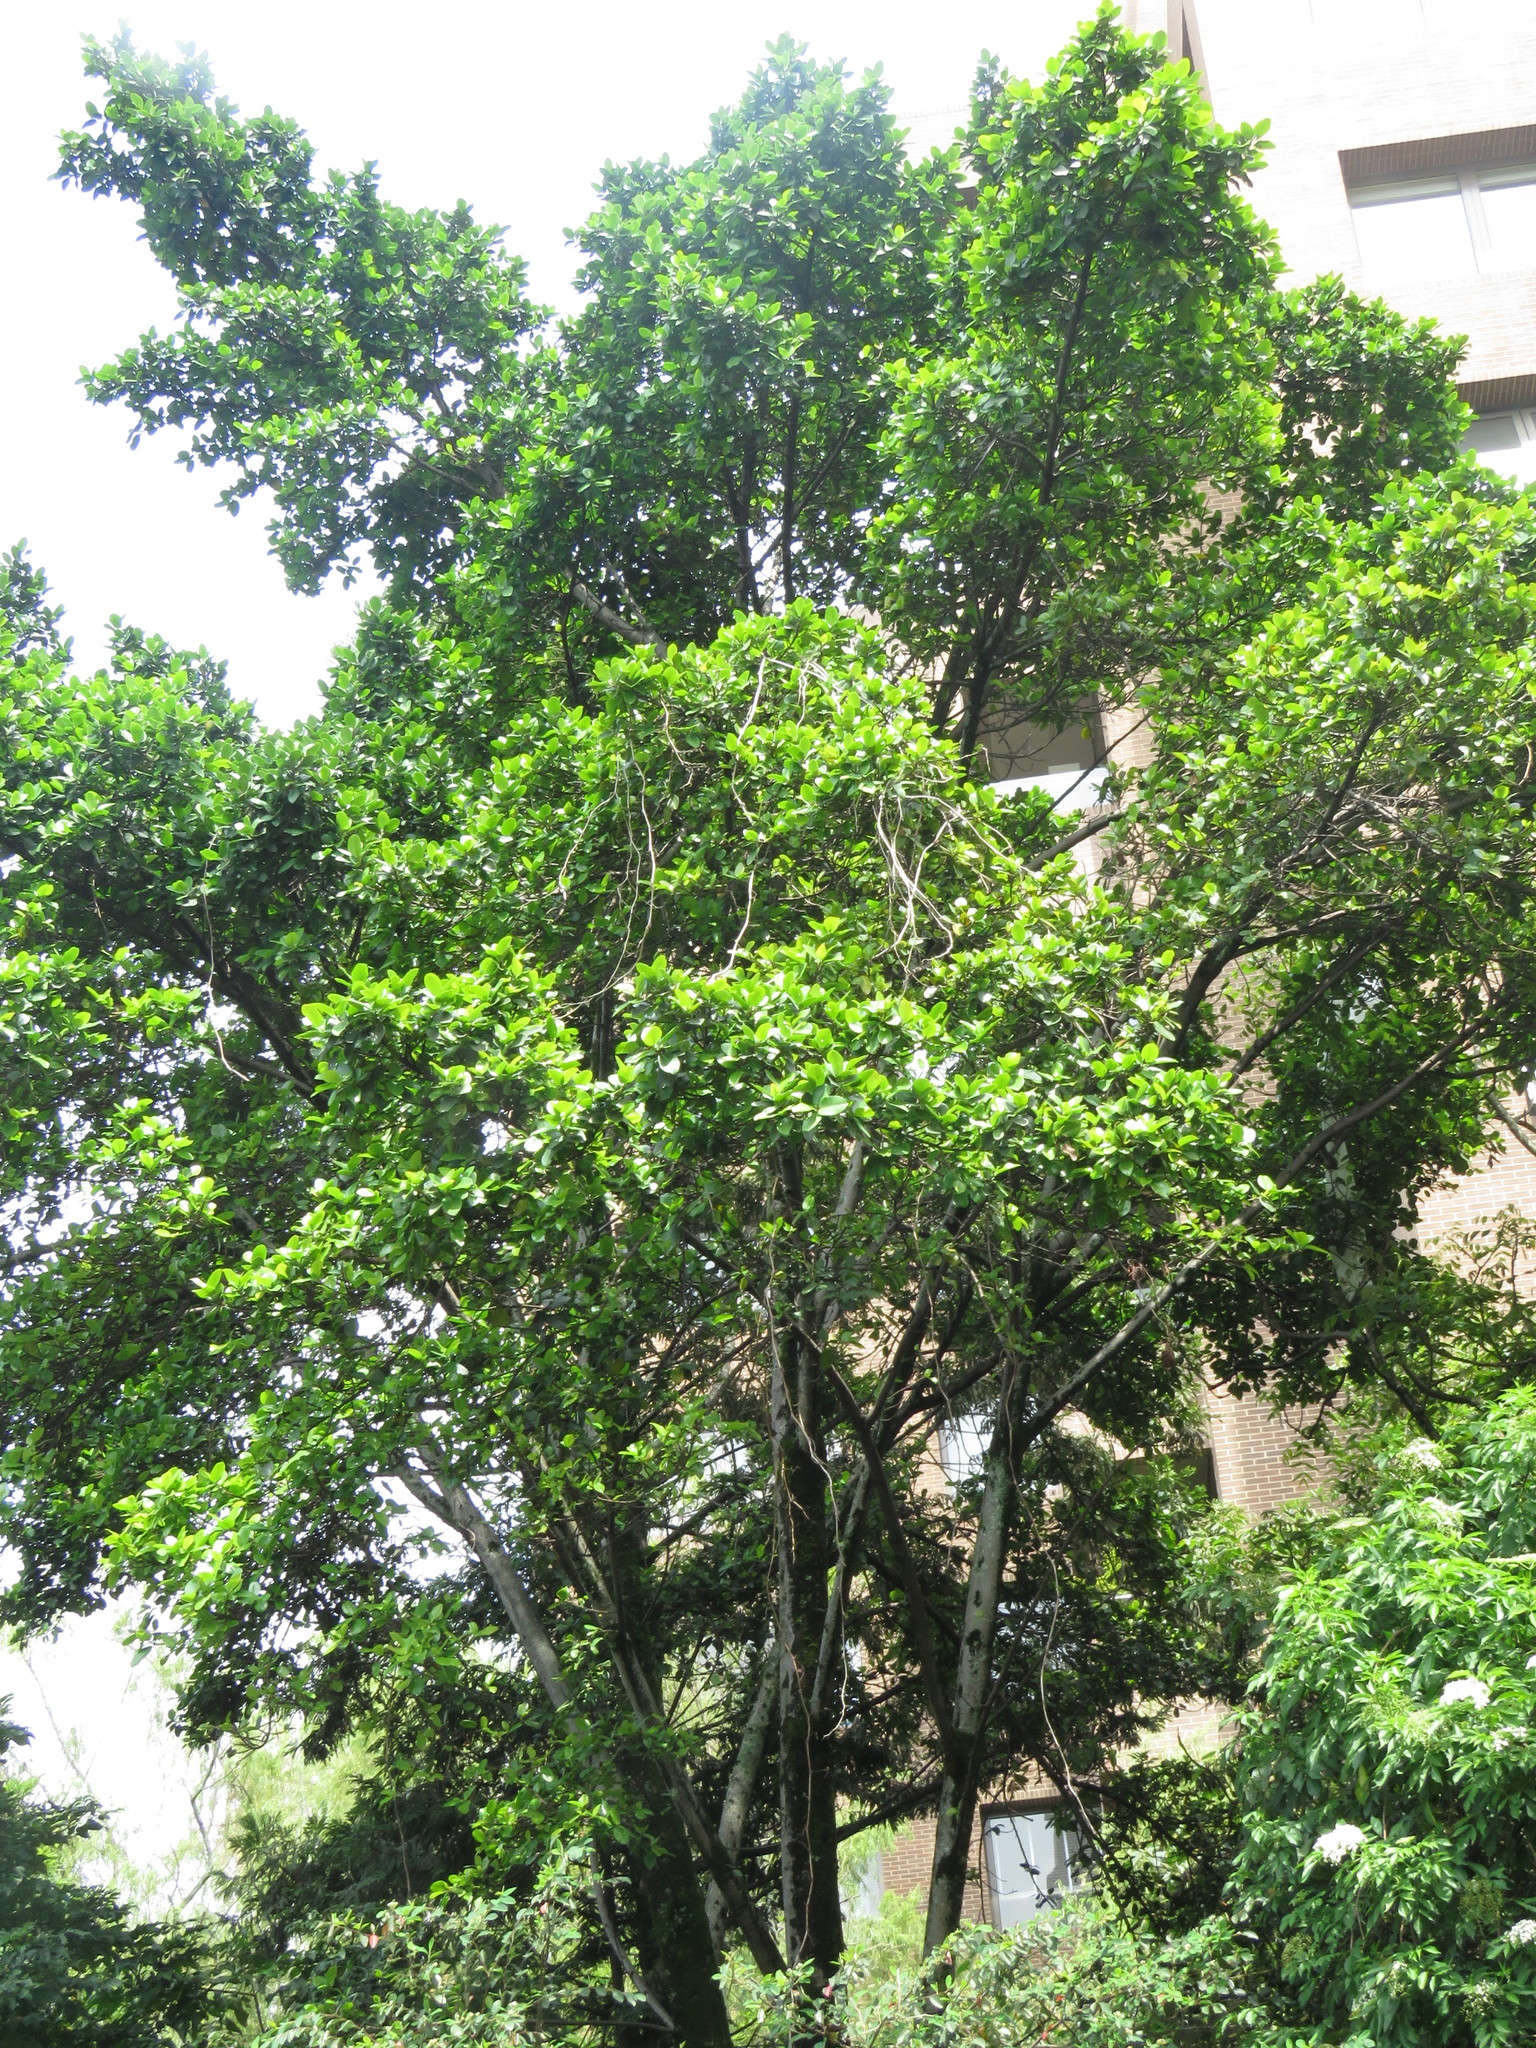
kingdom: Plantae
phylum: Tracheophyta
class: Magnoliopsida
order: Rosales
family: Moraceae
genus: Ficus
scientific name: Ficus americana
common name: Jamaican cherry fig
